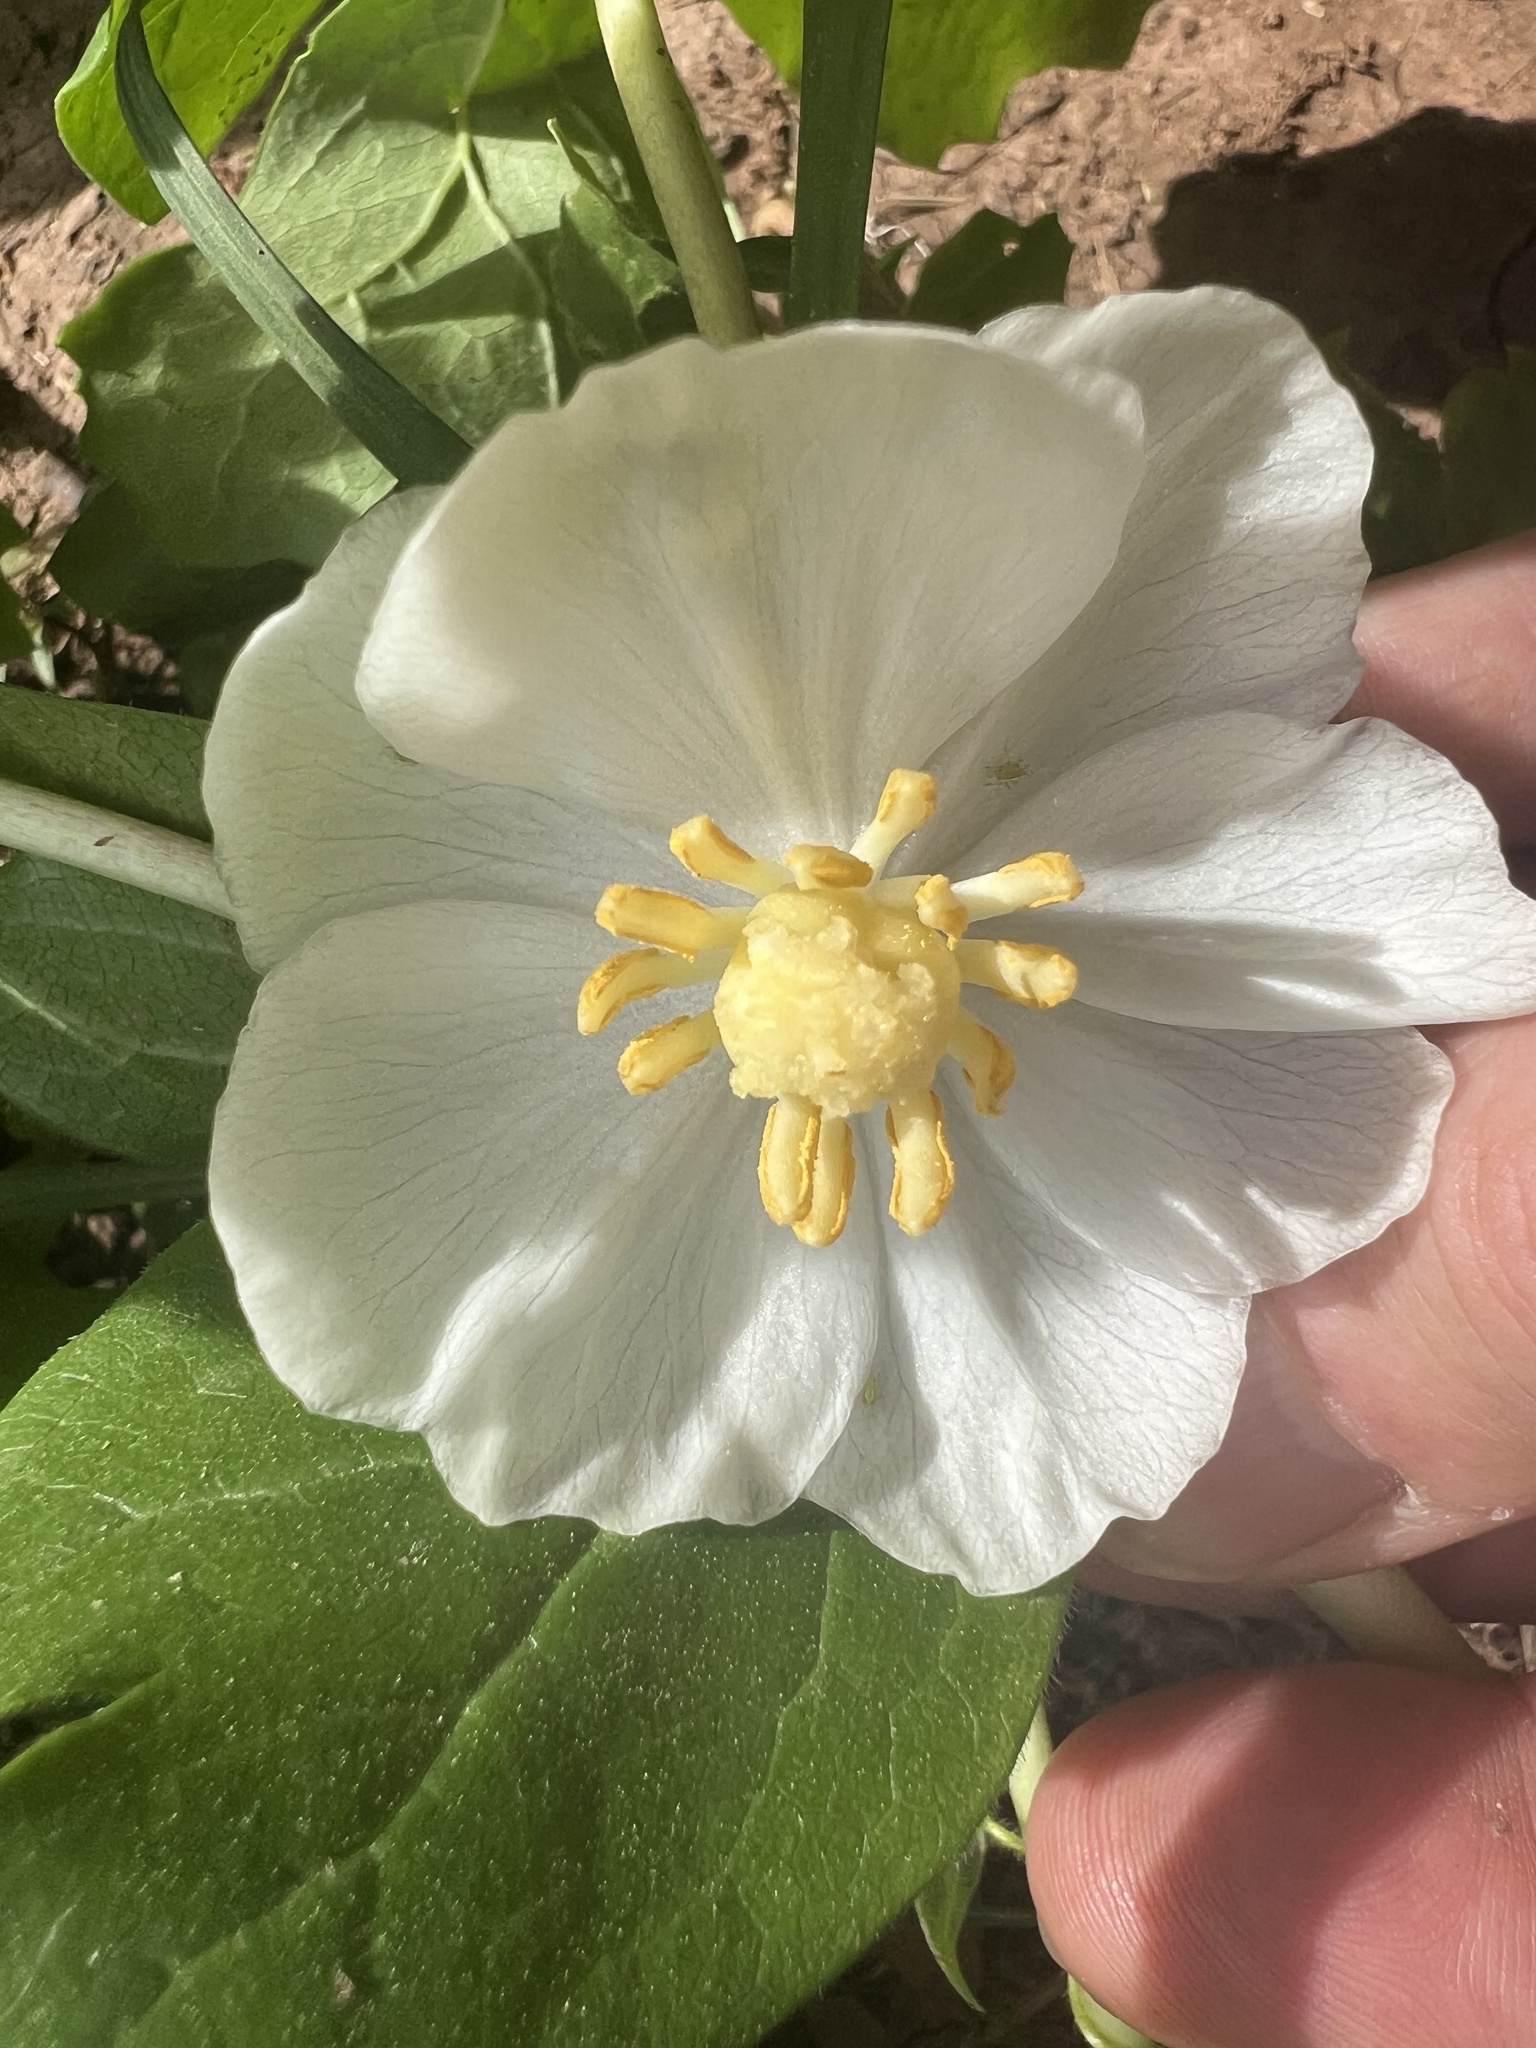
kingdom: Plantae
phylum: Tracheophyta
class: Magnoliopsida
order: Ranunculales
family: Berberidaceae
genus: Podophyllum
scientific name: Podophyllum peltatum
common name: Wild mandrake
